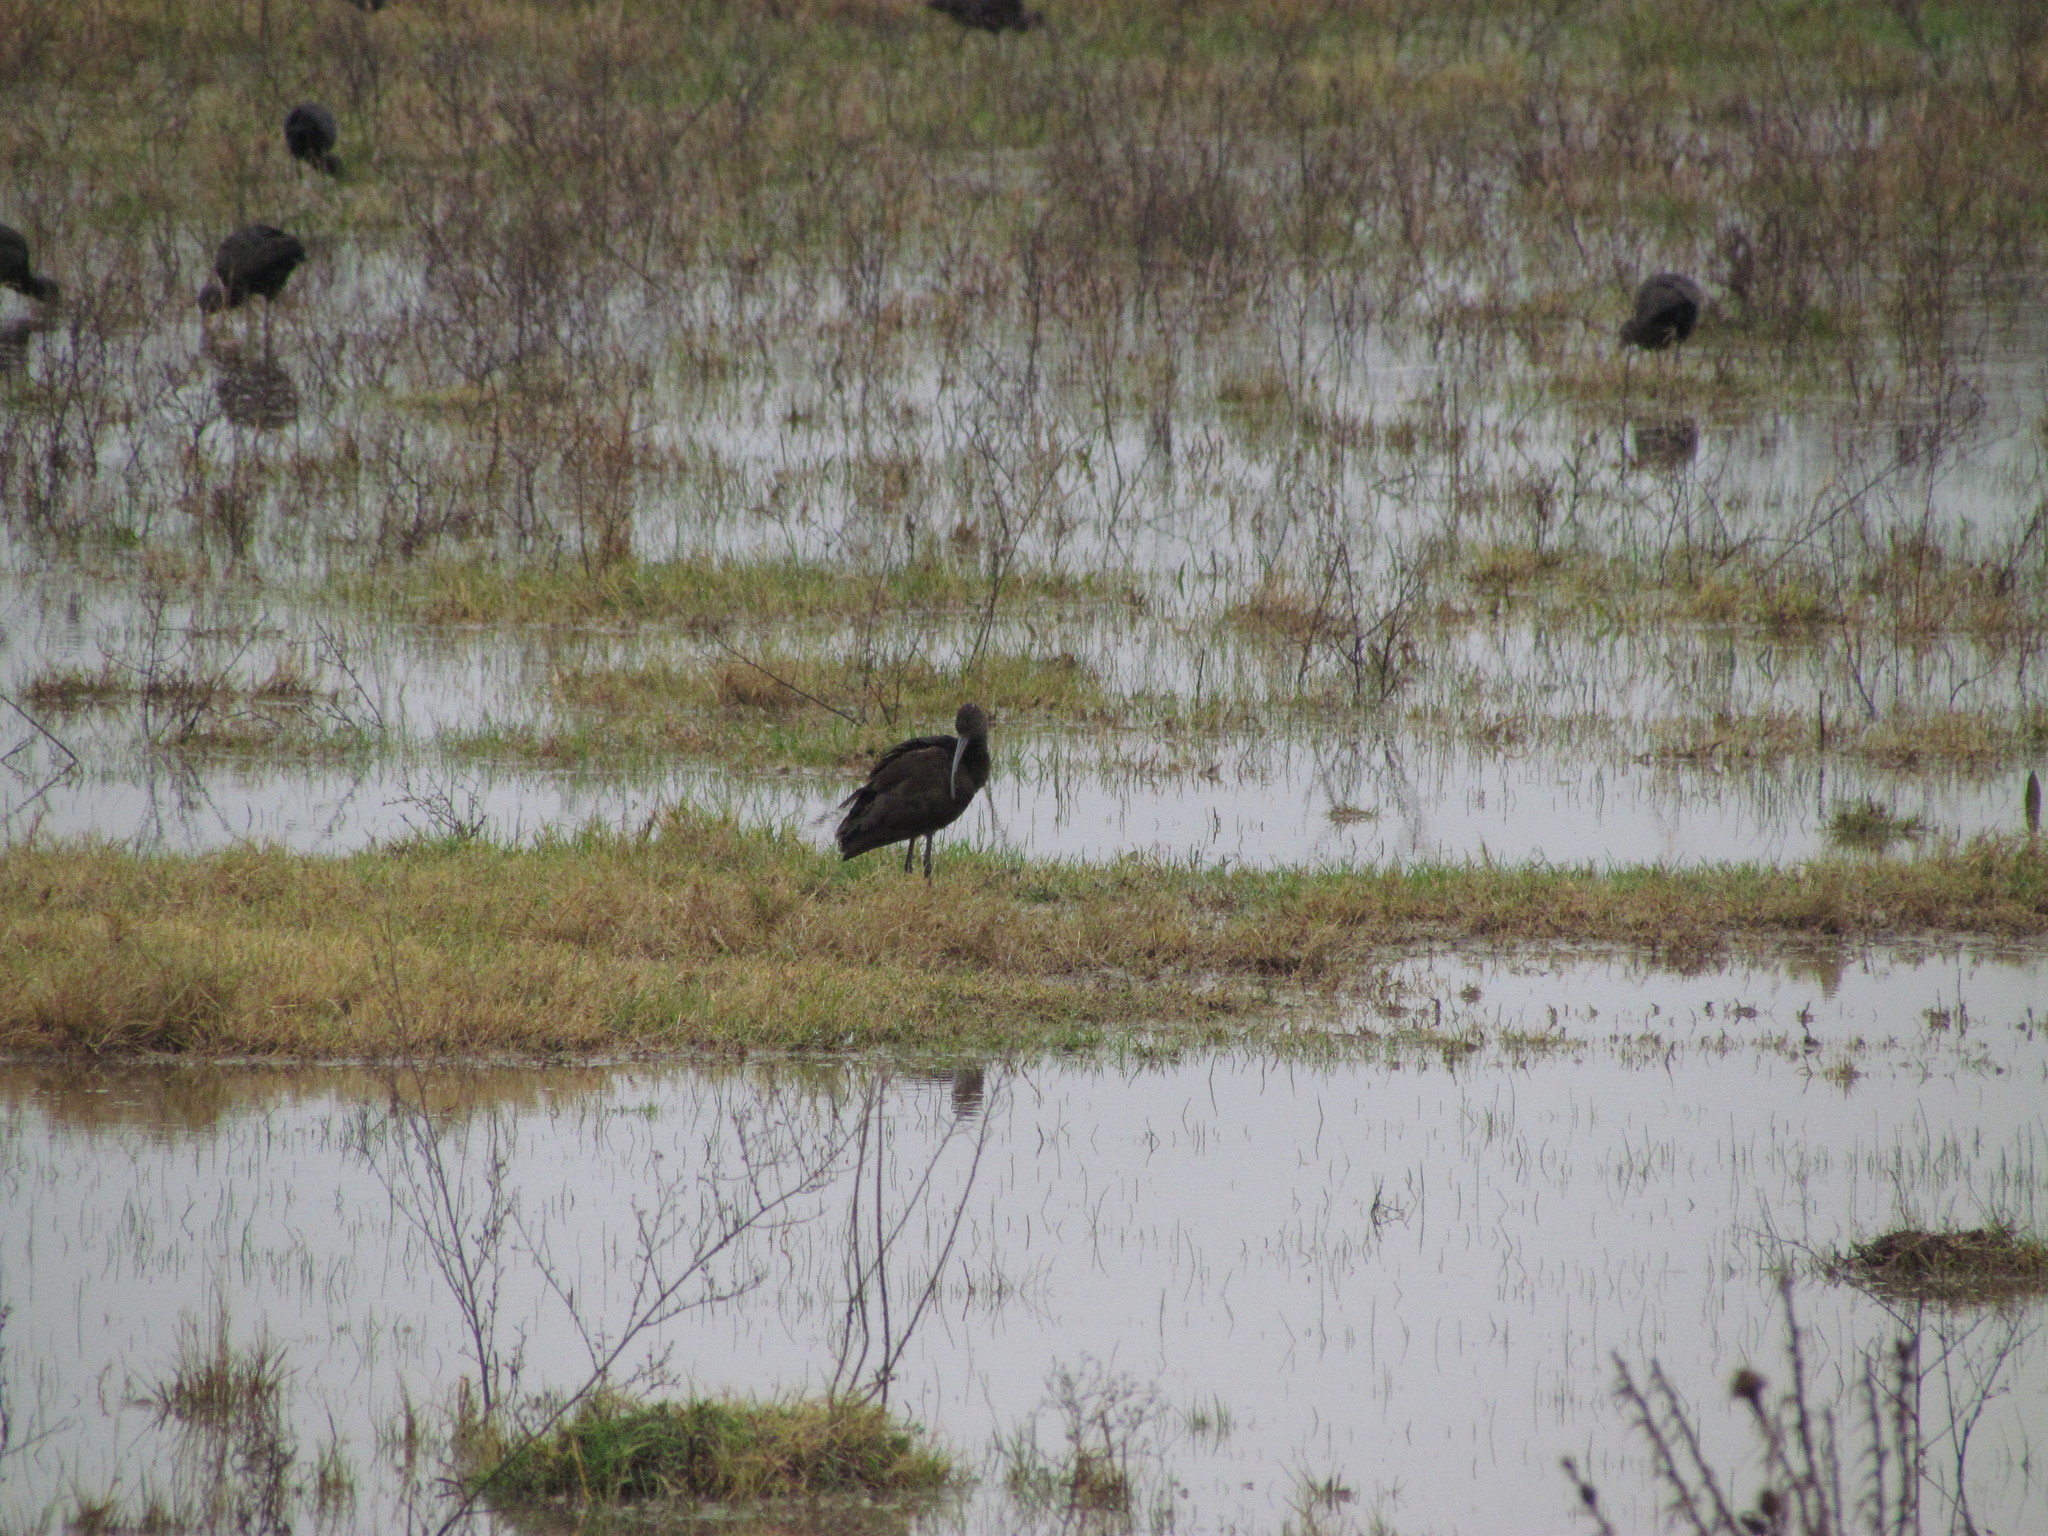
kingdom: Animalia
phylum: Chordata
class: Aves
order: Pelecaniformes
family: Threskiornithidae
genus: Plegadis
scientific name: Plegadis chihi
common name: White-faced ibis
